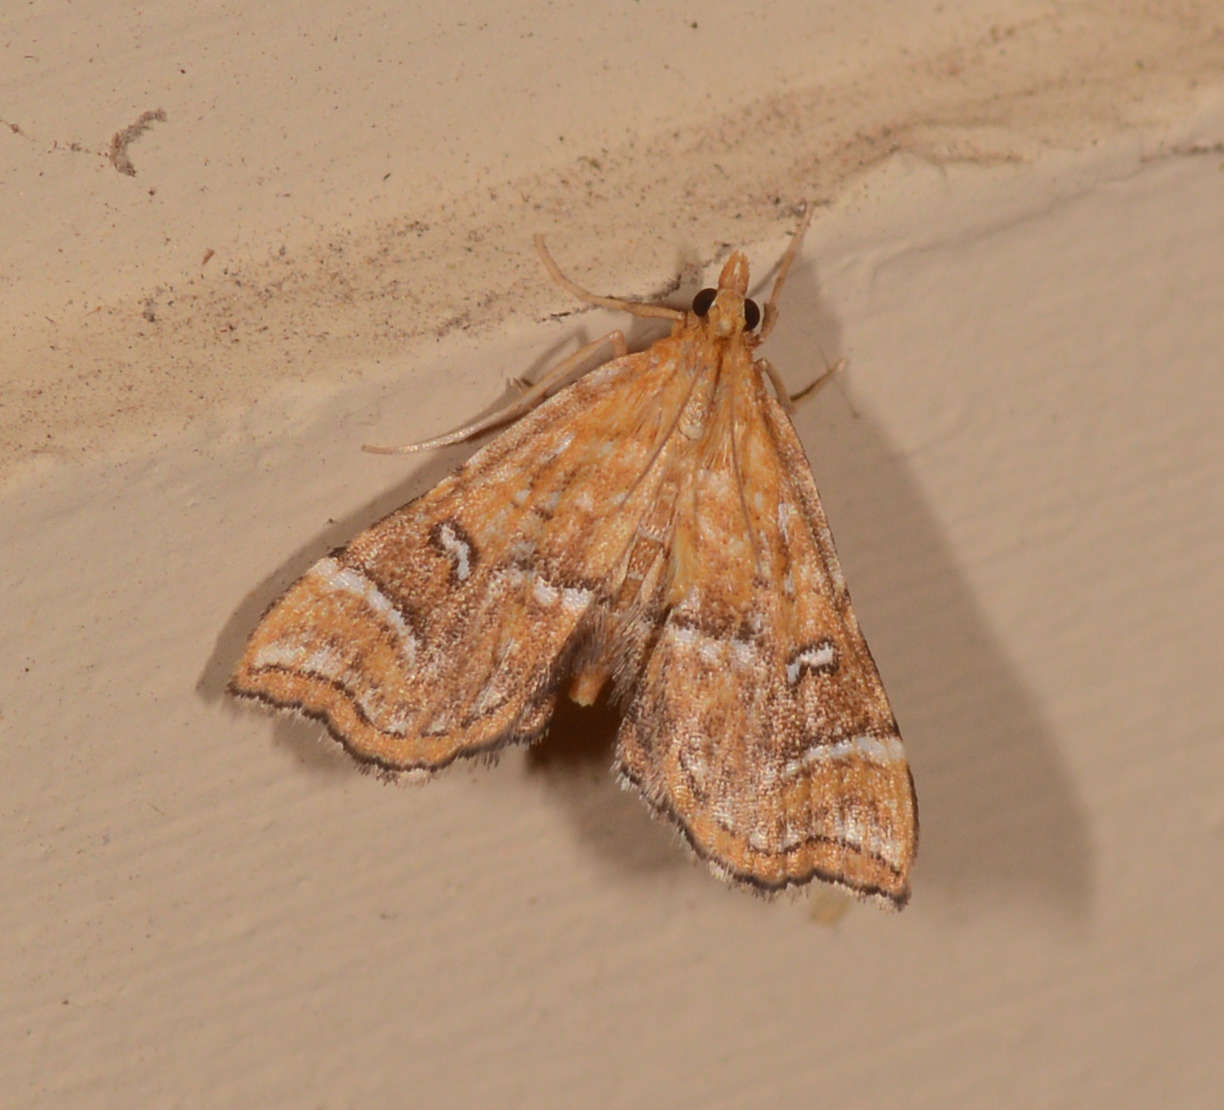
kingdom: Animalia
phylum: Arthropoda
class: Insecta
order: Lepidoptera
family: Pyralidae
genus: Musotima
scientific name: Musotima ochropteralis
